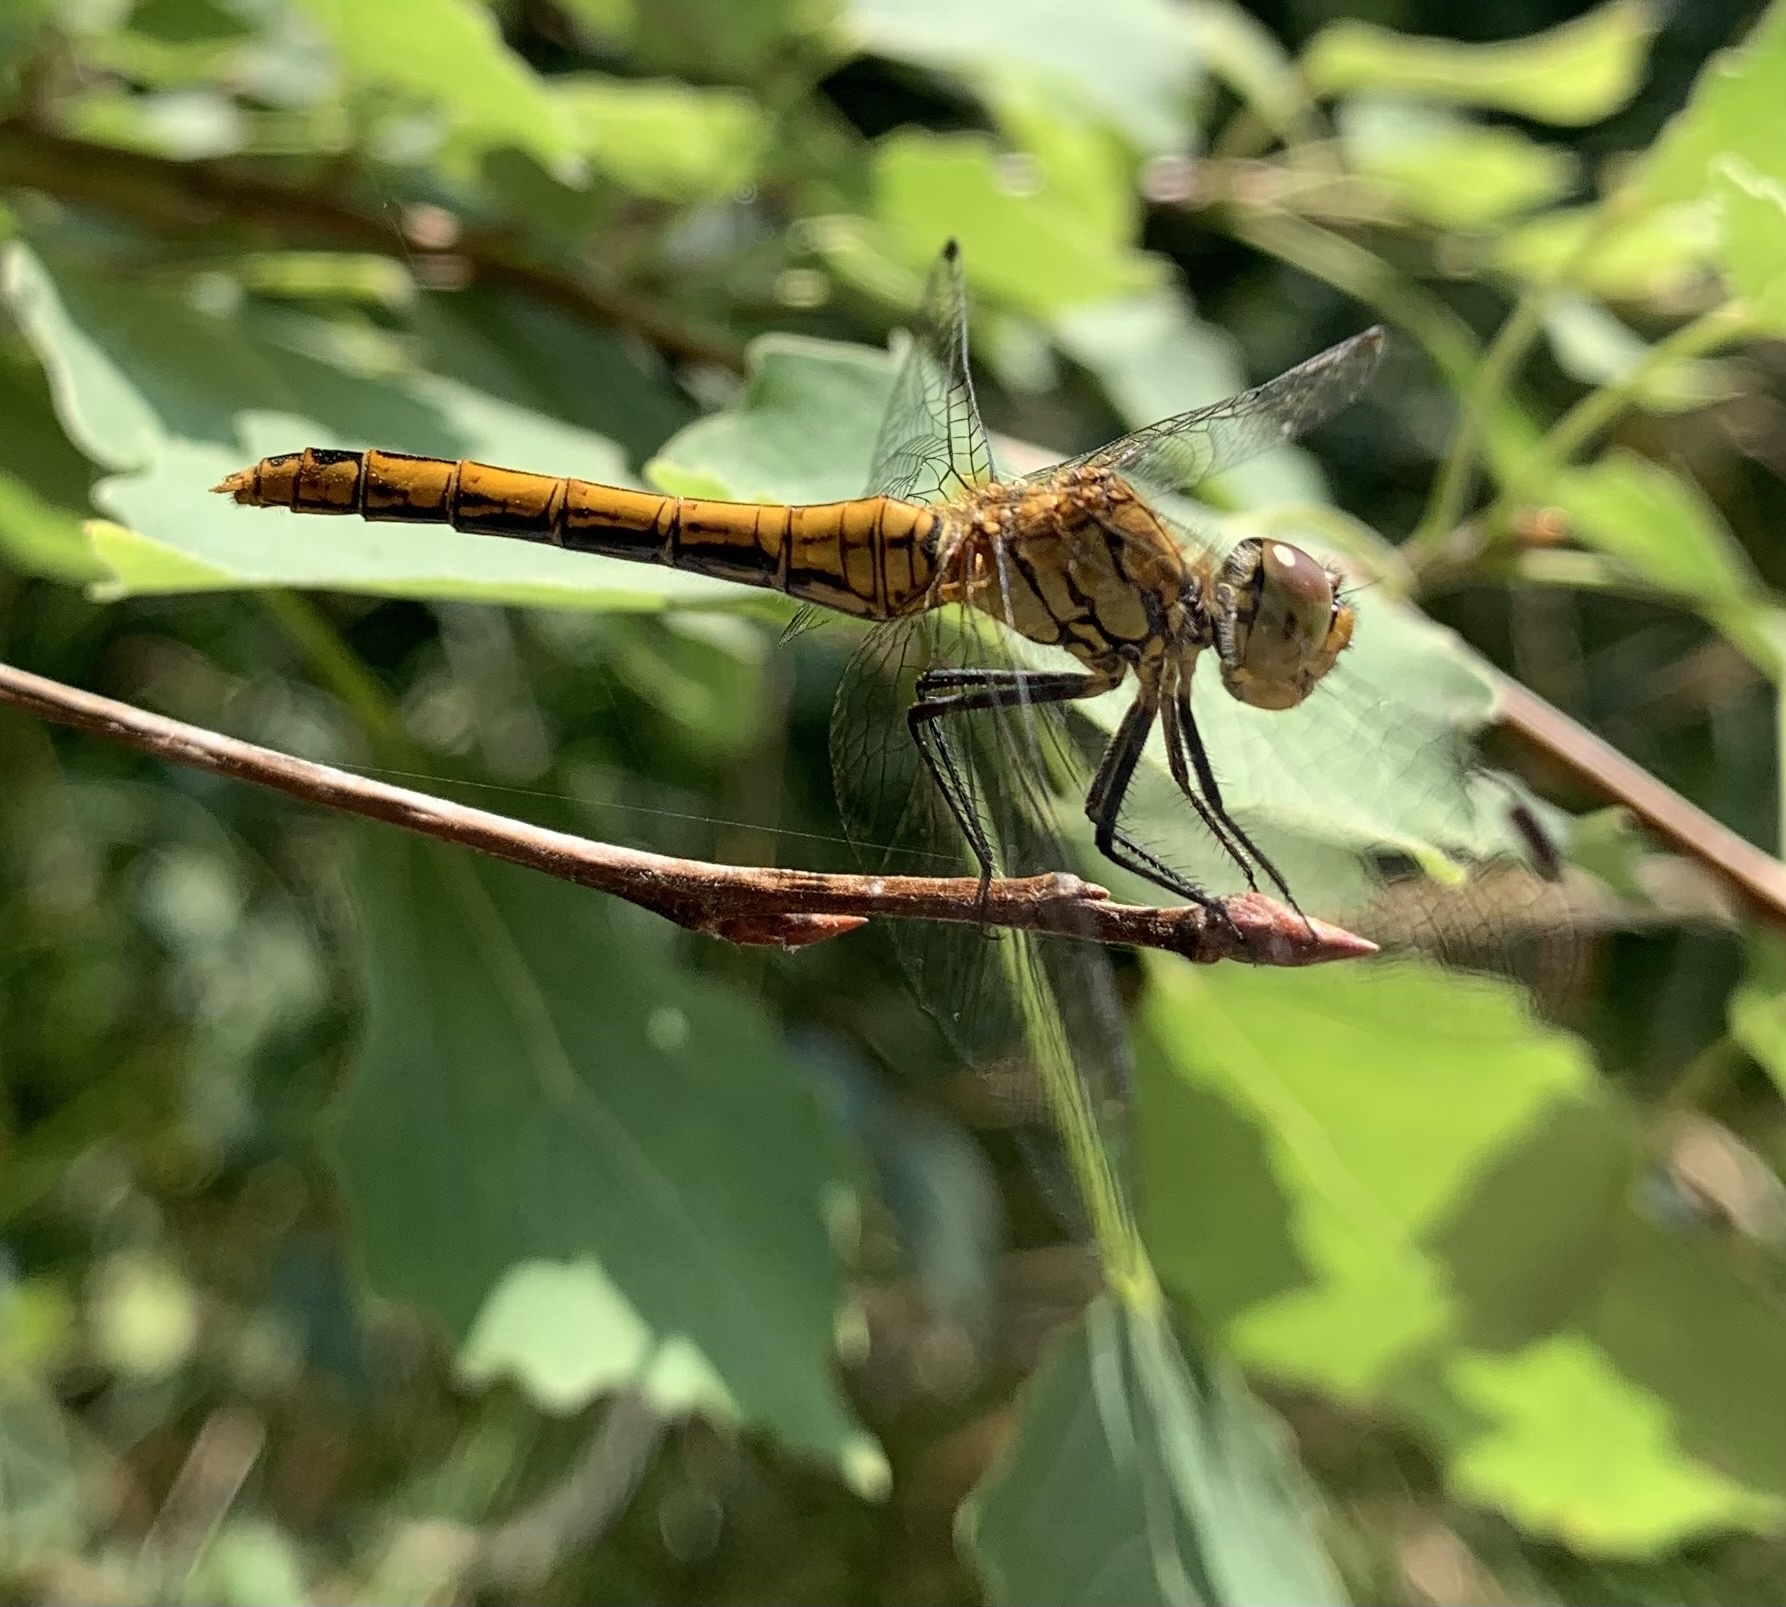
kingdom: Animalia
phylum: Arthropoda
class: Insecta
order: Odonata
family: Libellulidae
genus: Sympetrum
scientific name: Sympetrum sanguineum
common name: Ruddy darter
